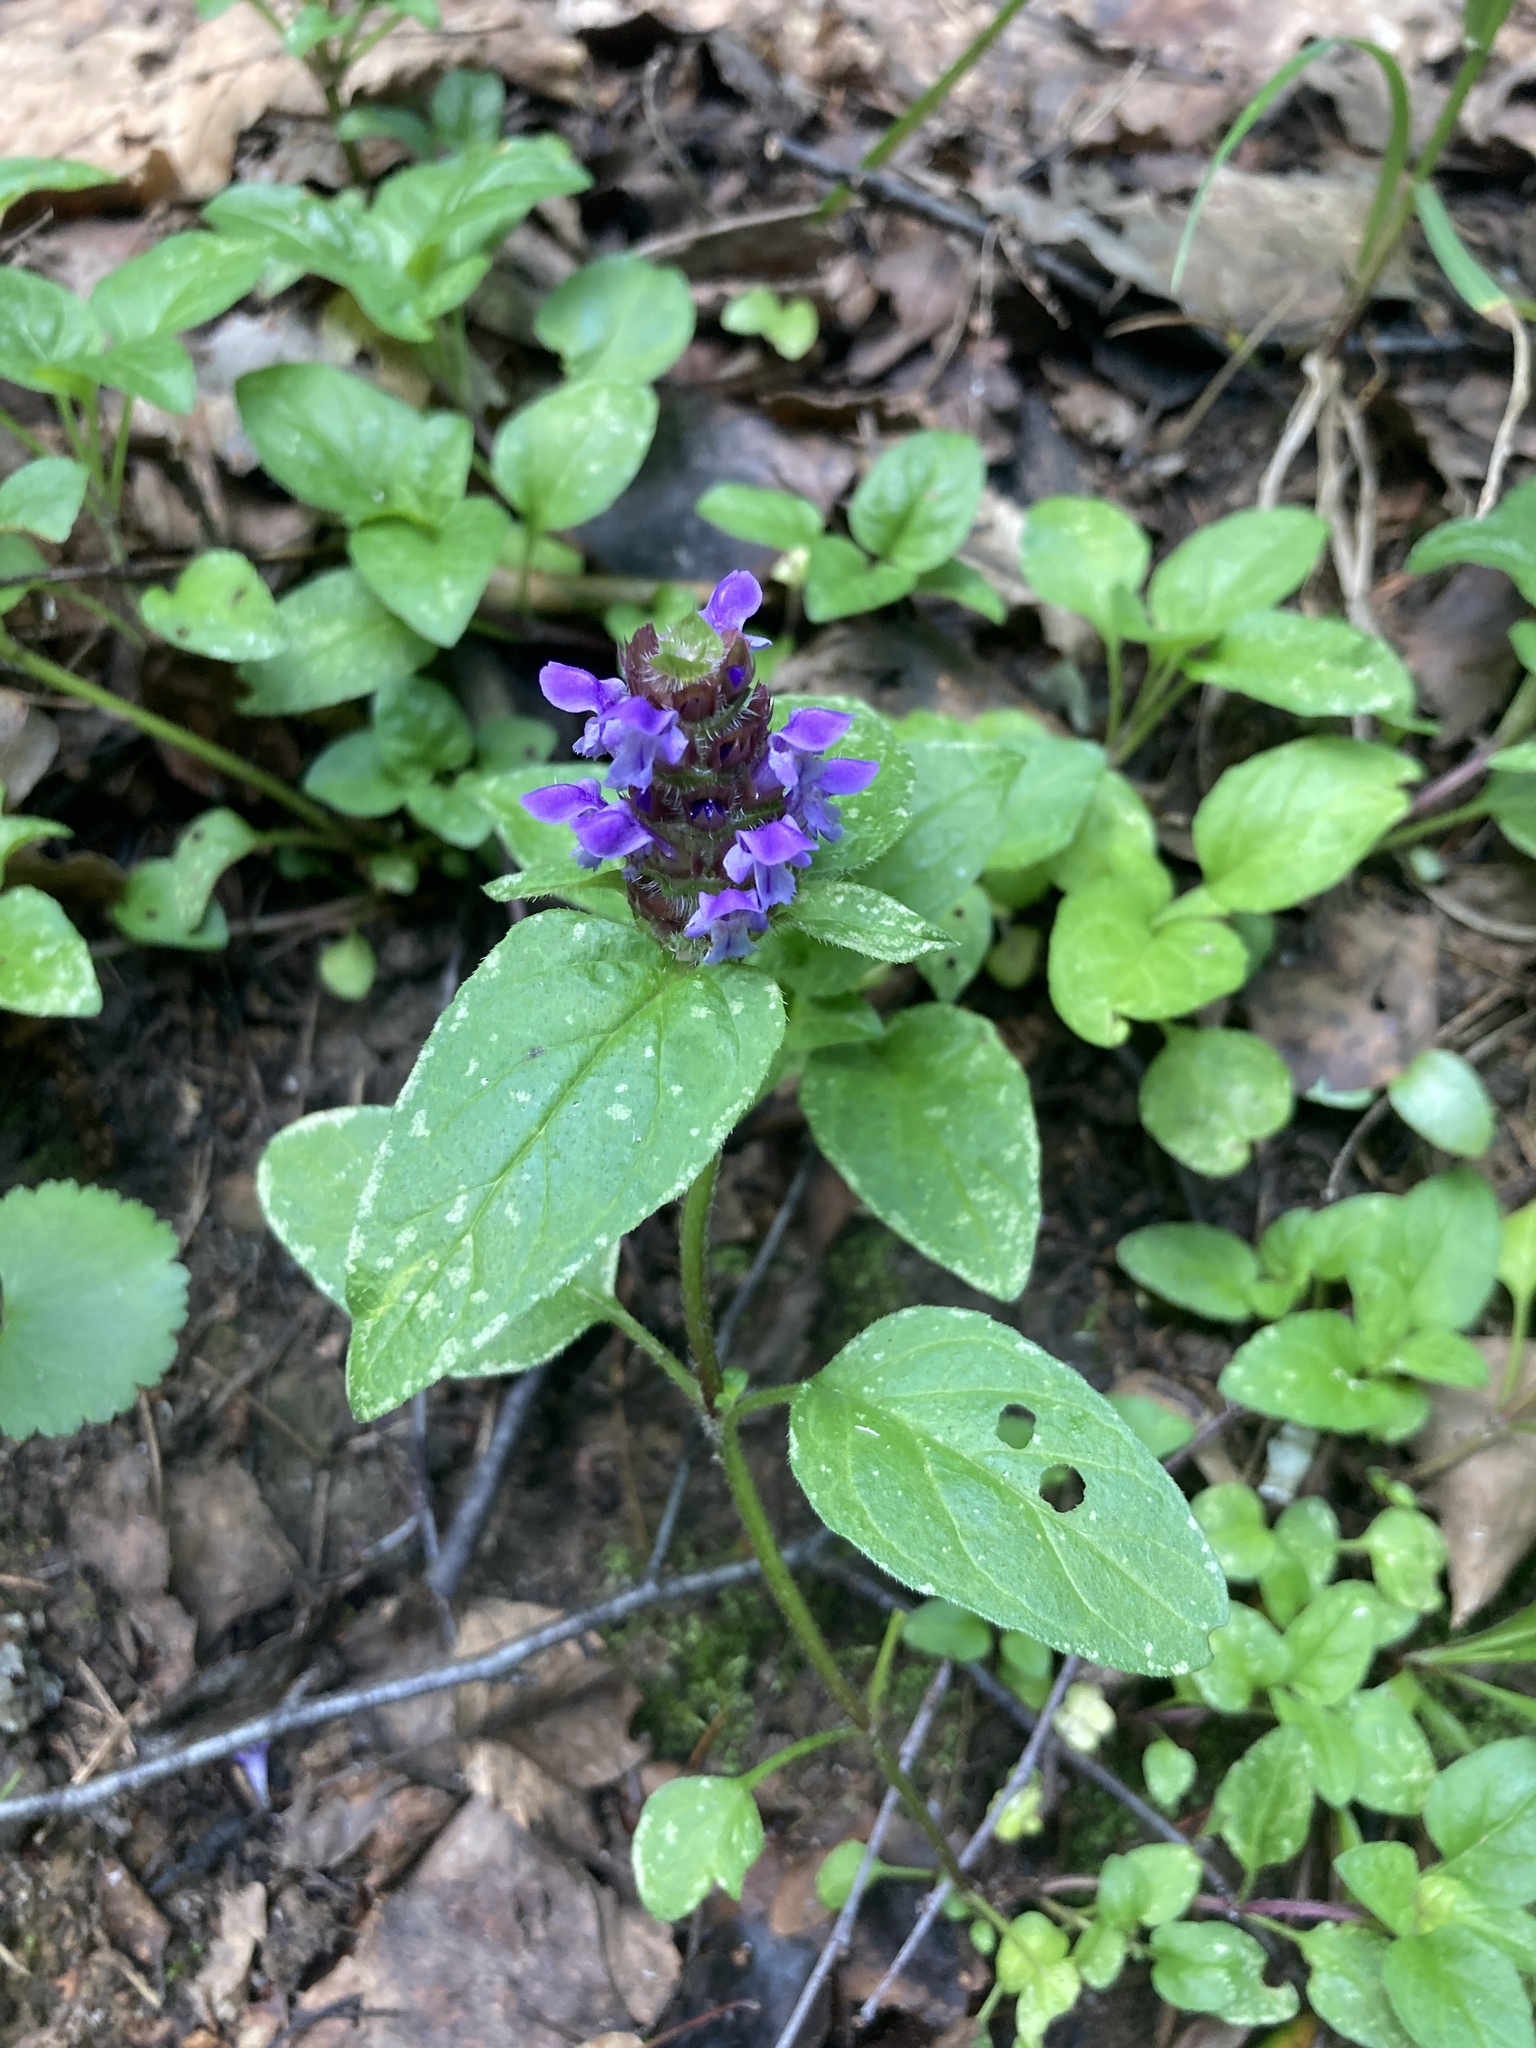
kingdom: Plantae
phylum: Tracheophyta
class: Magnoliopsida
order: Lamiales
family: Lamiaceae
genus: Prunella
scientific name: Prunella vulgaris
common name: Heal-all
